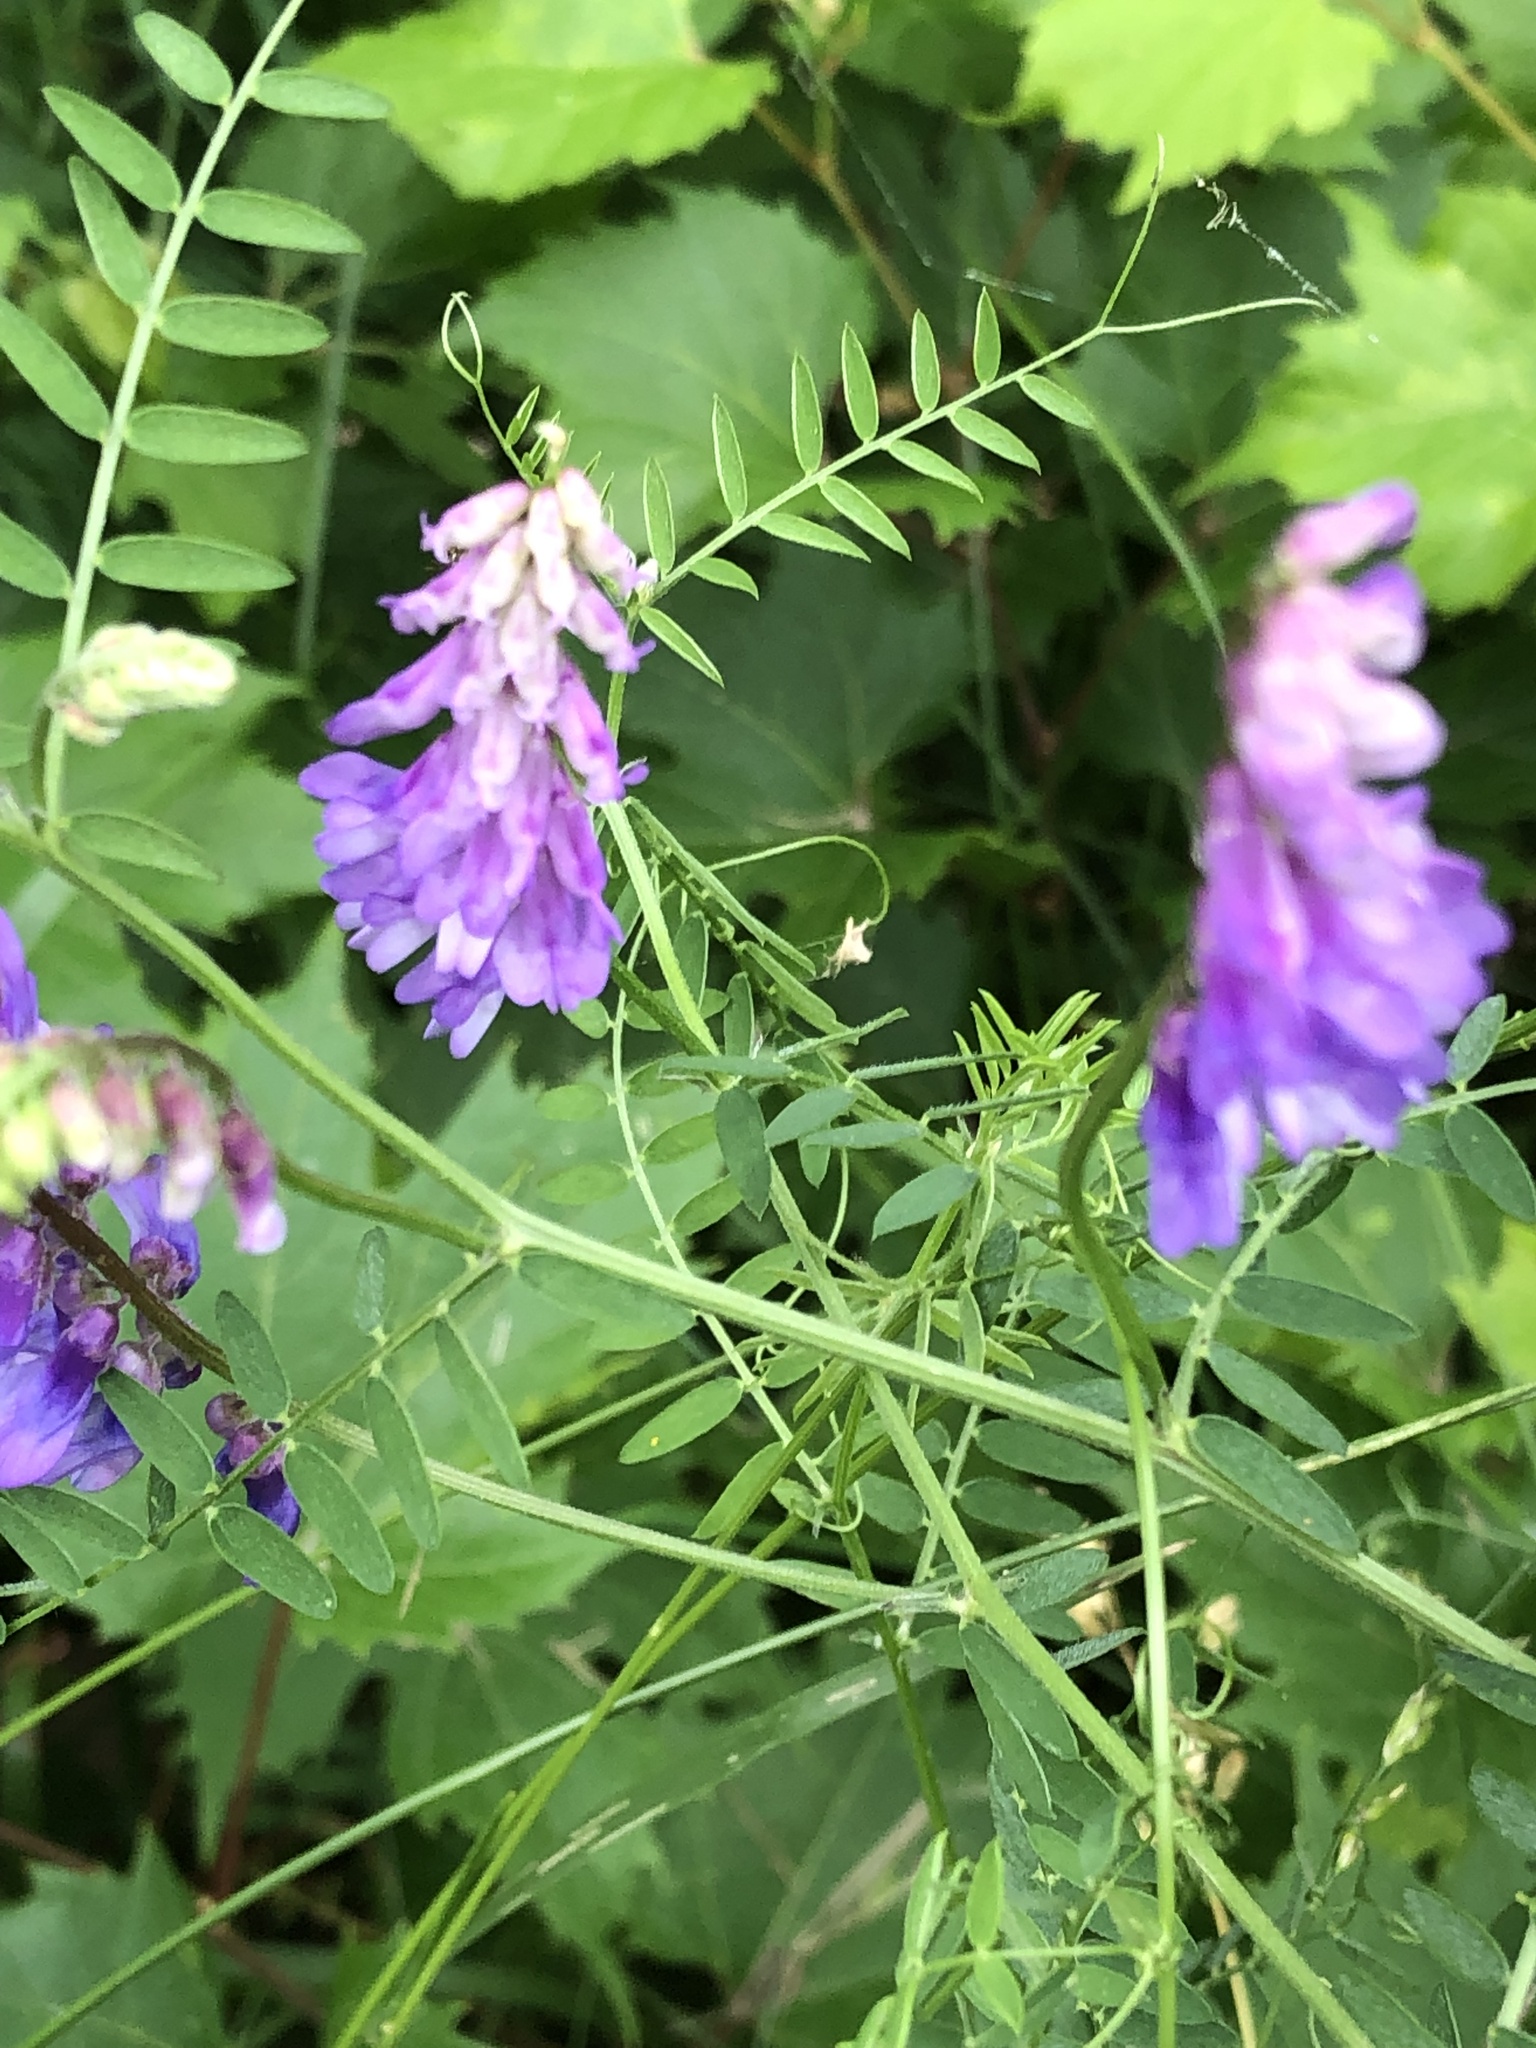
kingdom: Plantae
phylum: Tracheophyta
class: Magnoliopsida
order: Fabales
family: Fabaceae
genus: Vicia
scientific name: Vicia cracca
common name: Bird vetch
